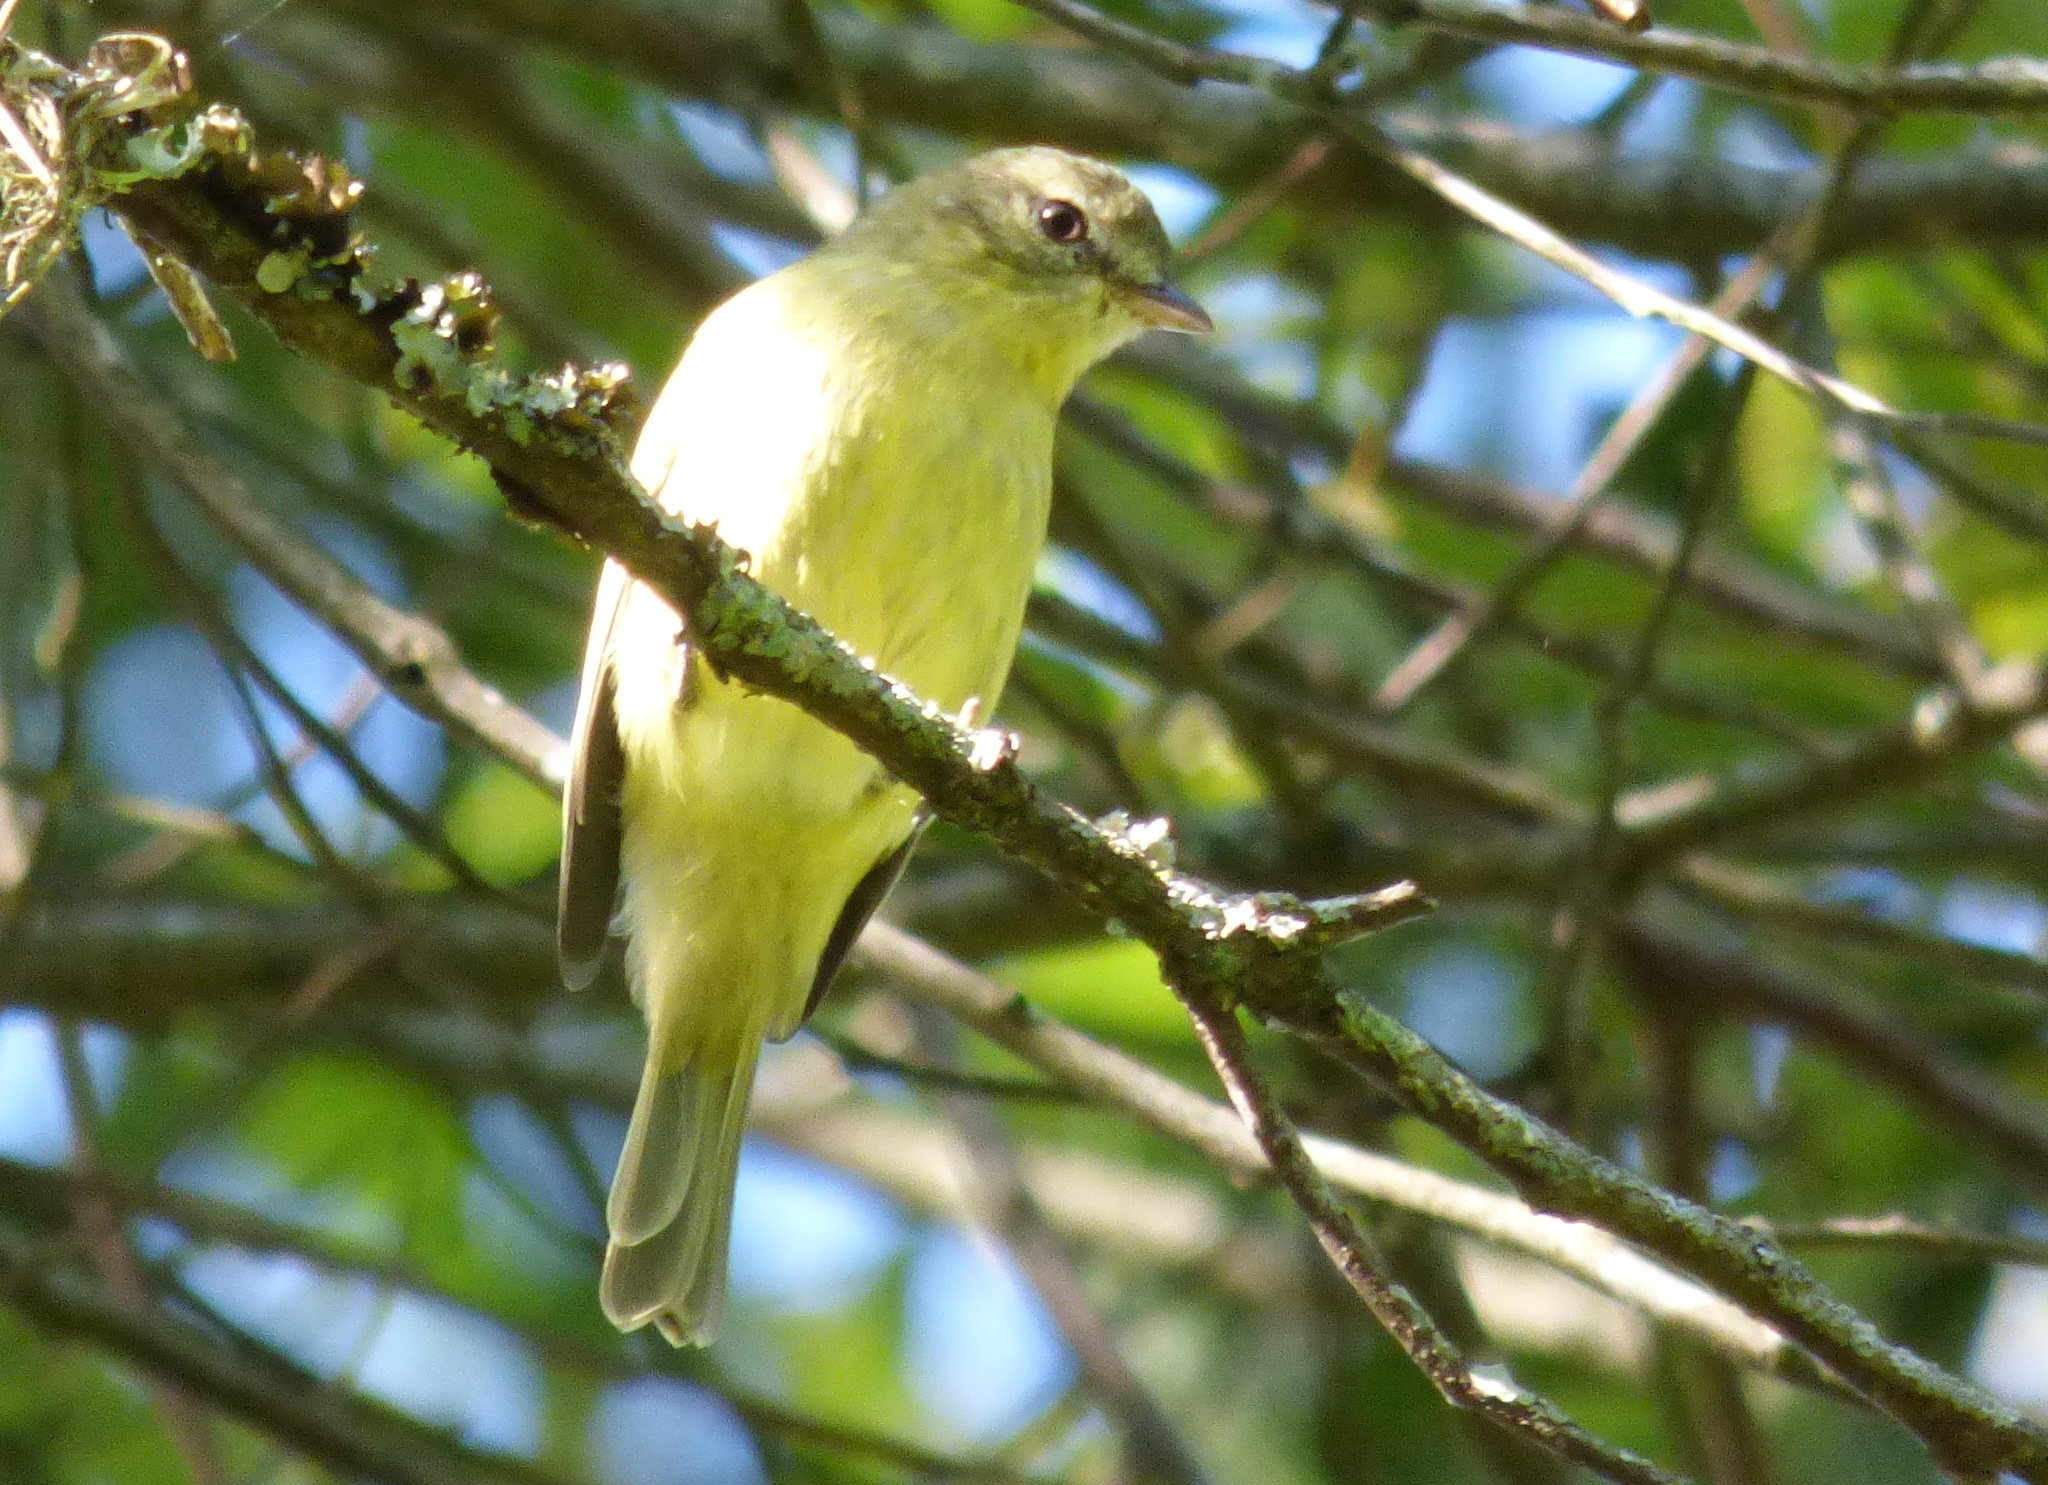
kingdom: Animalia
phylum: Chordata
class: Aves
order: Passeriformes
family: Tyrannidae
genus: Phyllomyias
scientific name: Phyllomyias burmeisteri
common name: Rough-legged tyrannulet
